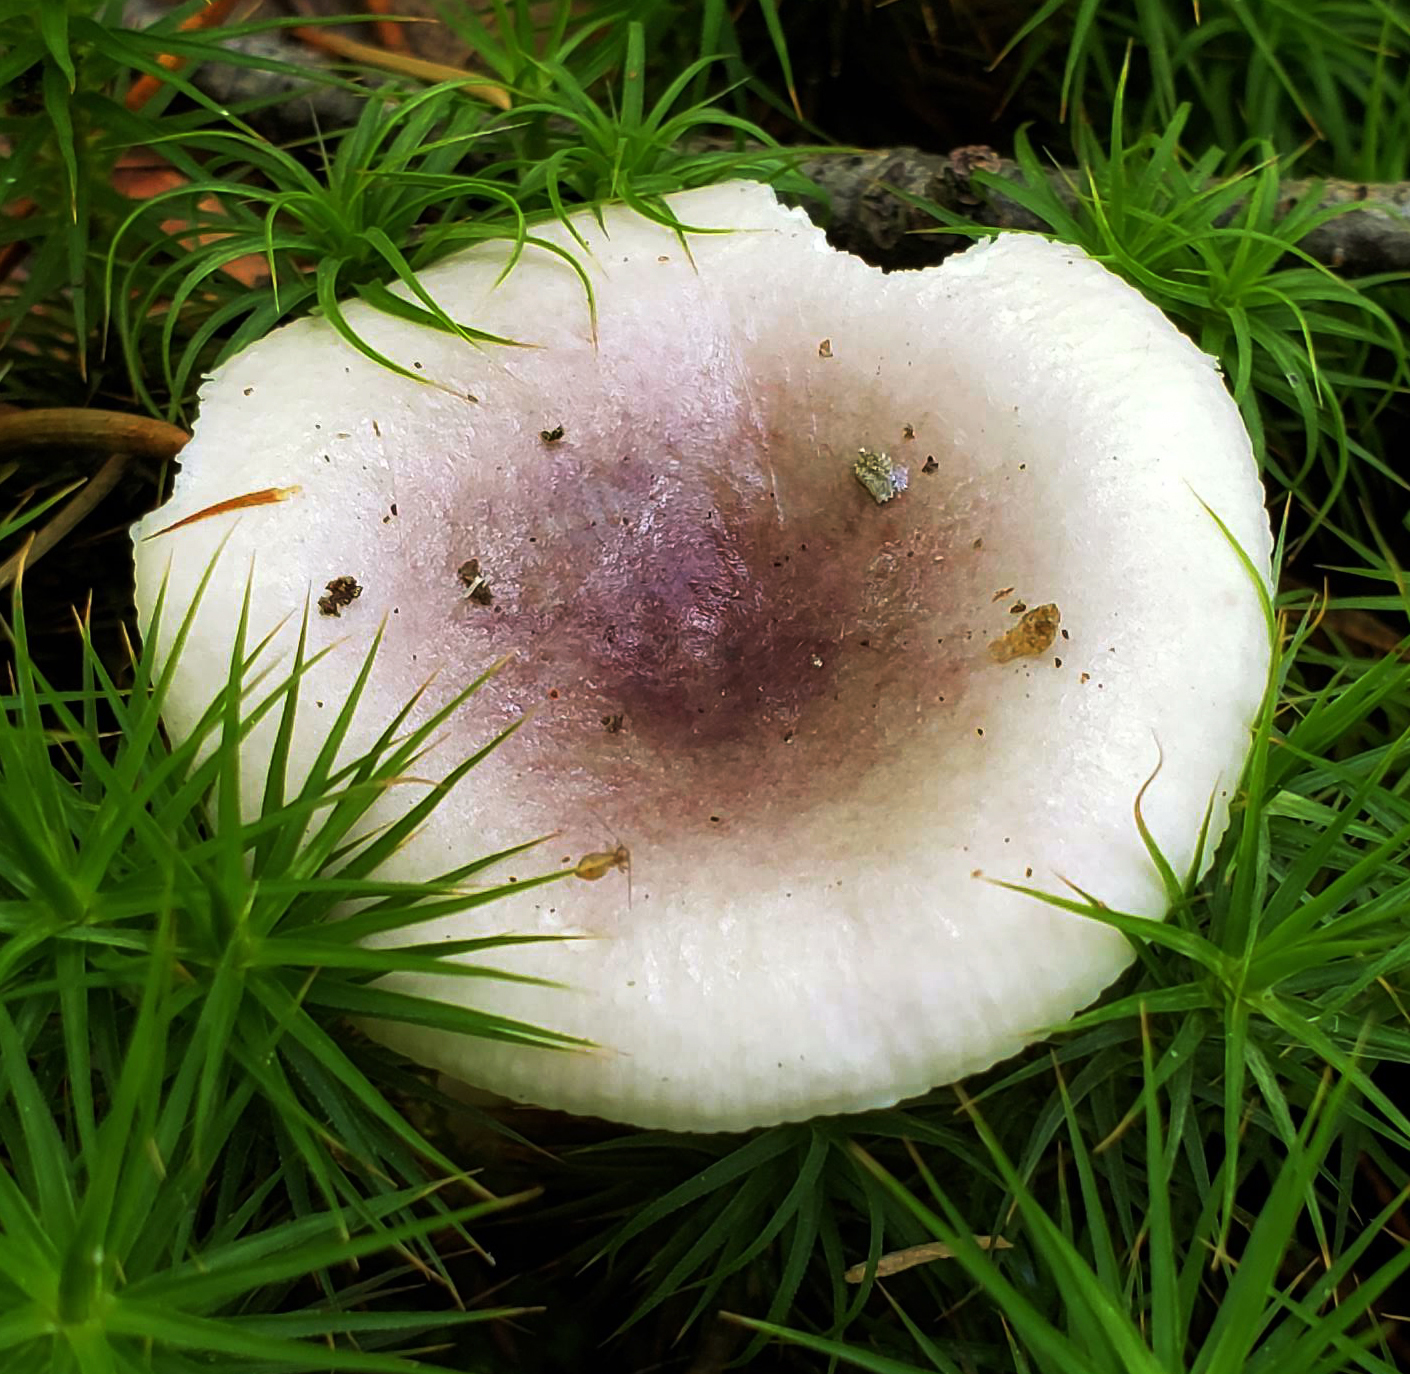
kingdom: Fungi
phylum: Basidiomycota
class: Agaricomycetes
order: Russulales
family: Russulaceae
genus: Russula
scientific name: Russula fragilis
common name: Fragile brittlegill
